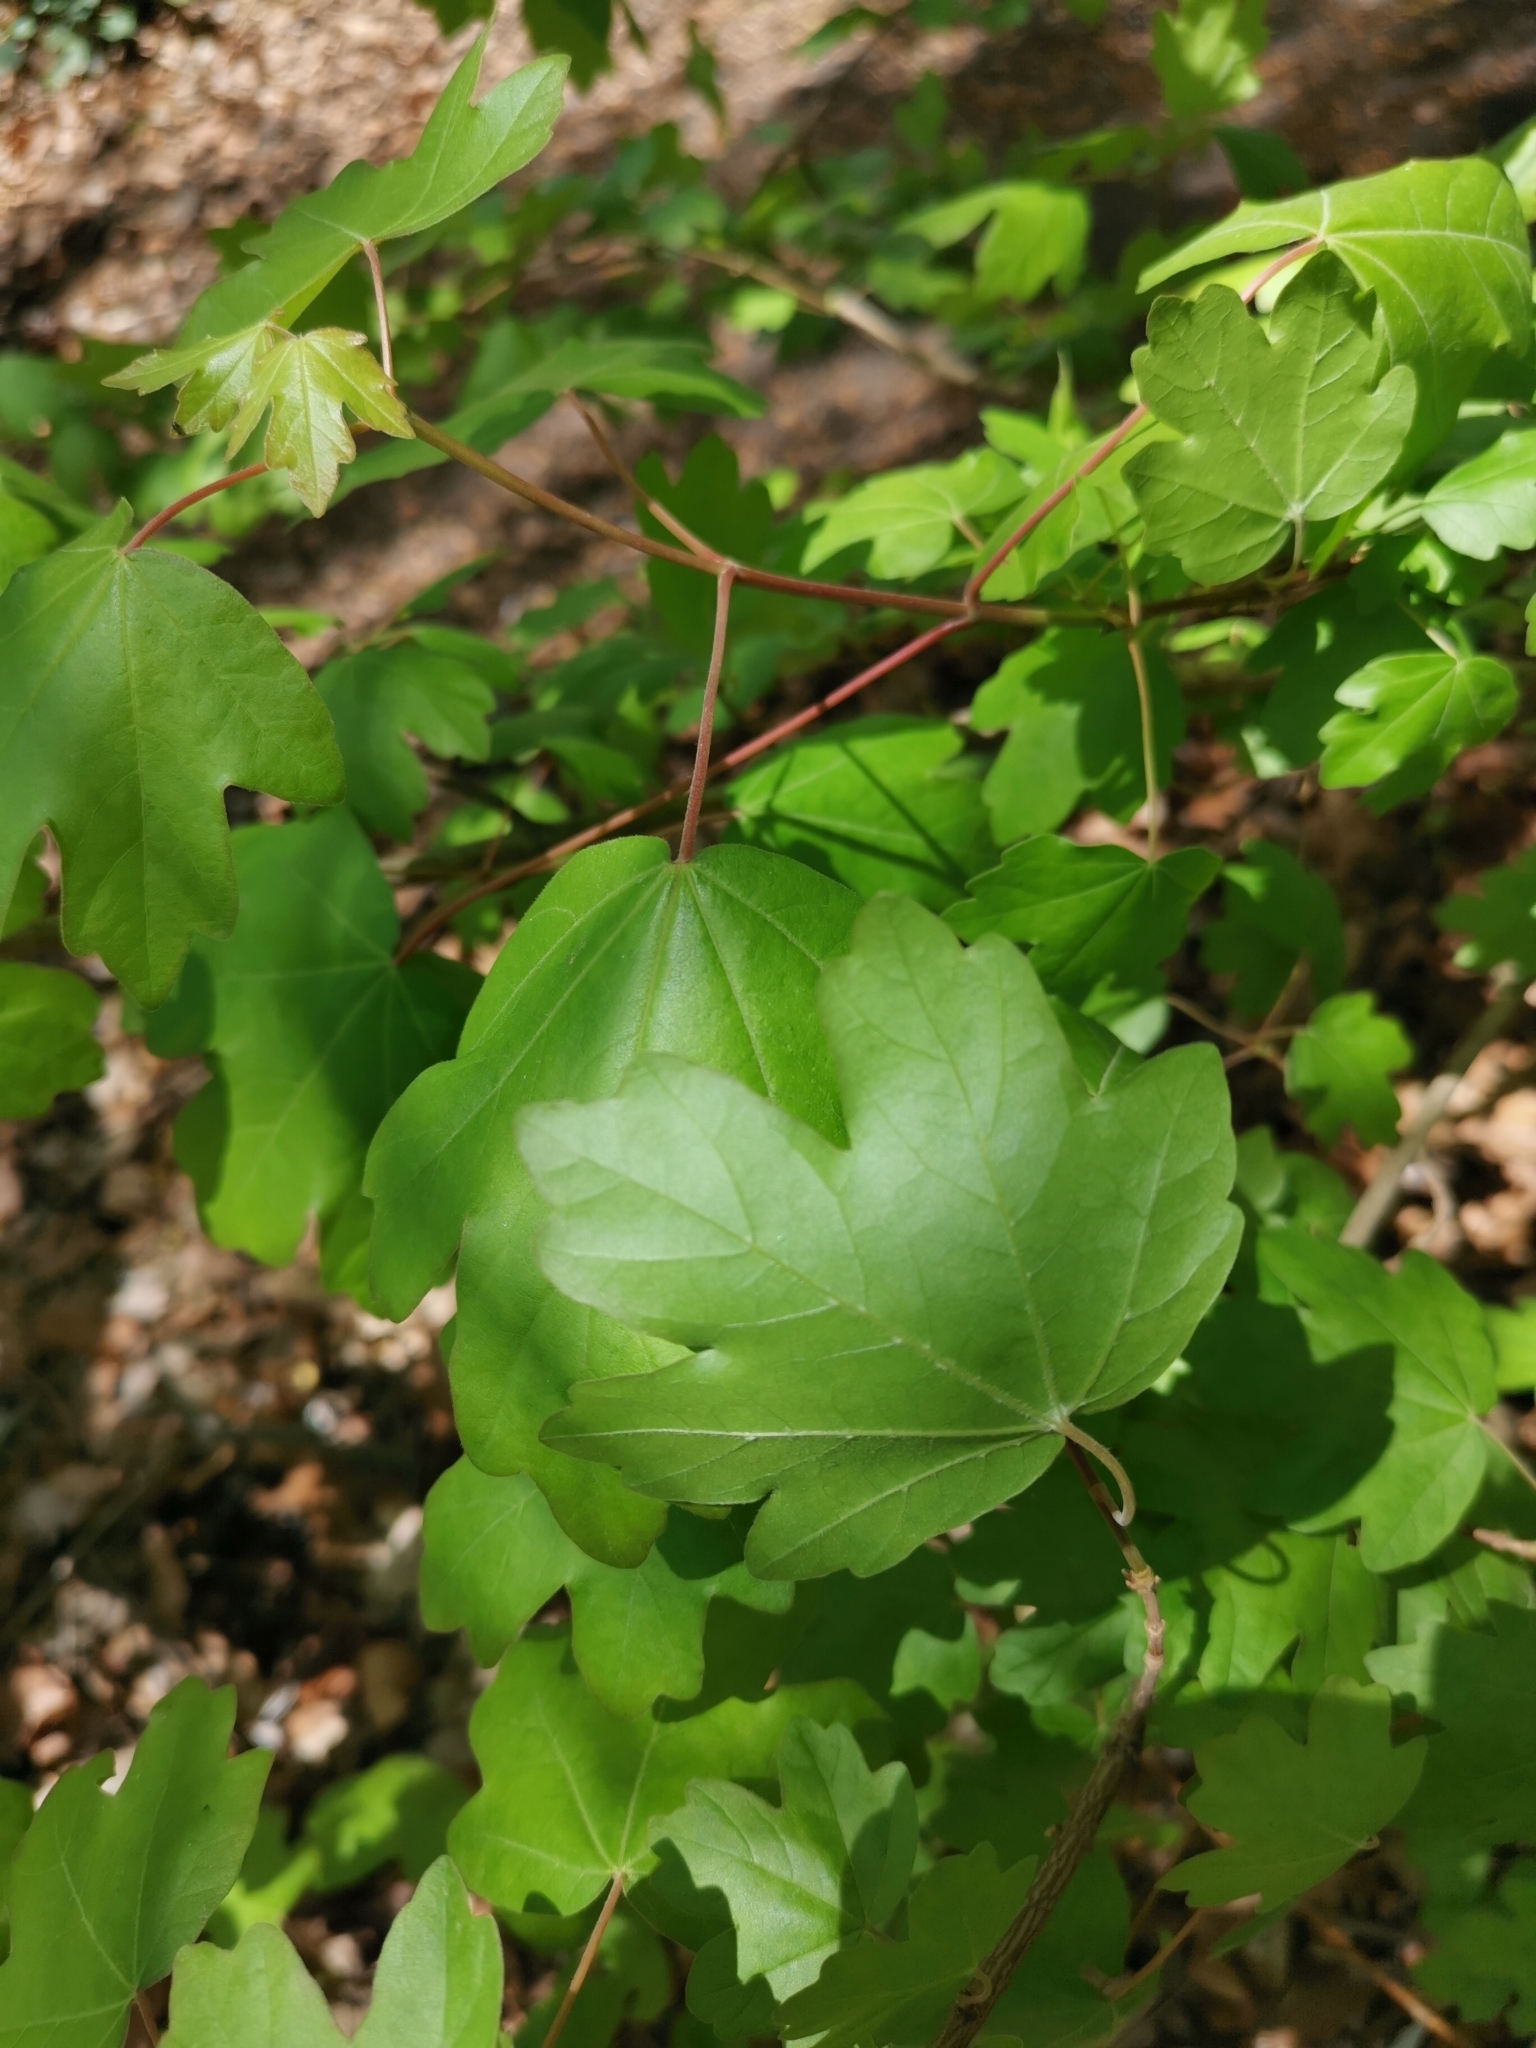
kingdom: Plantae
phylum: Tracheophyta
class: Magnoliopsida
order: Sapindales
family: Sapindaceae
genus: Acer
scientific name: Acer campestre
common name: Field maple
